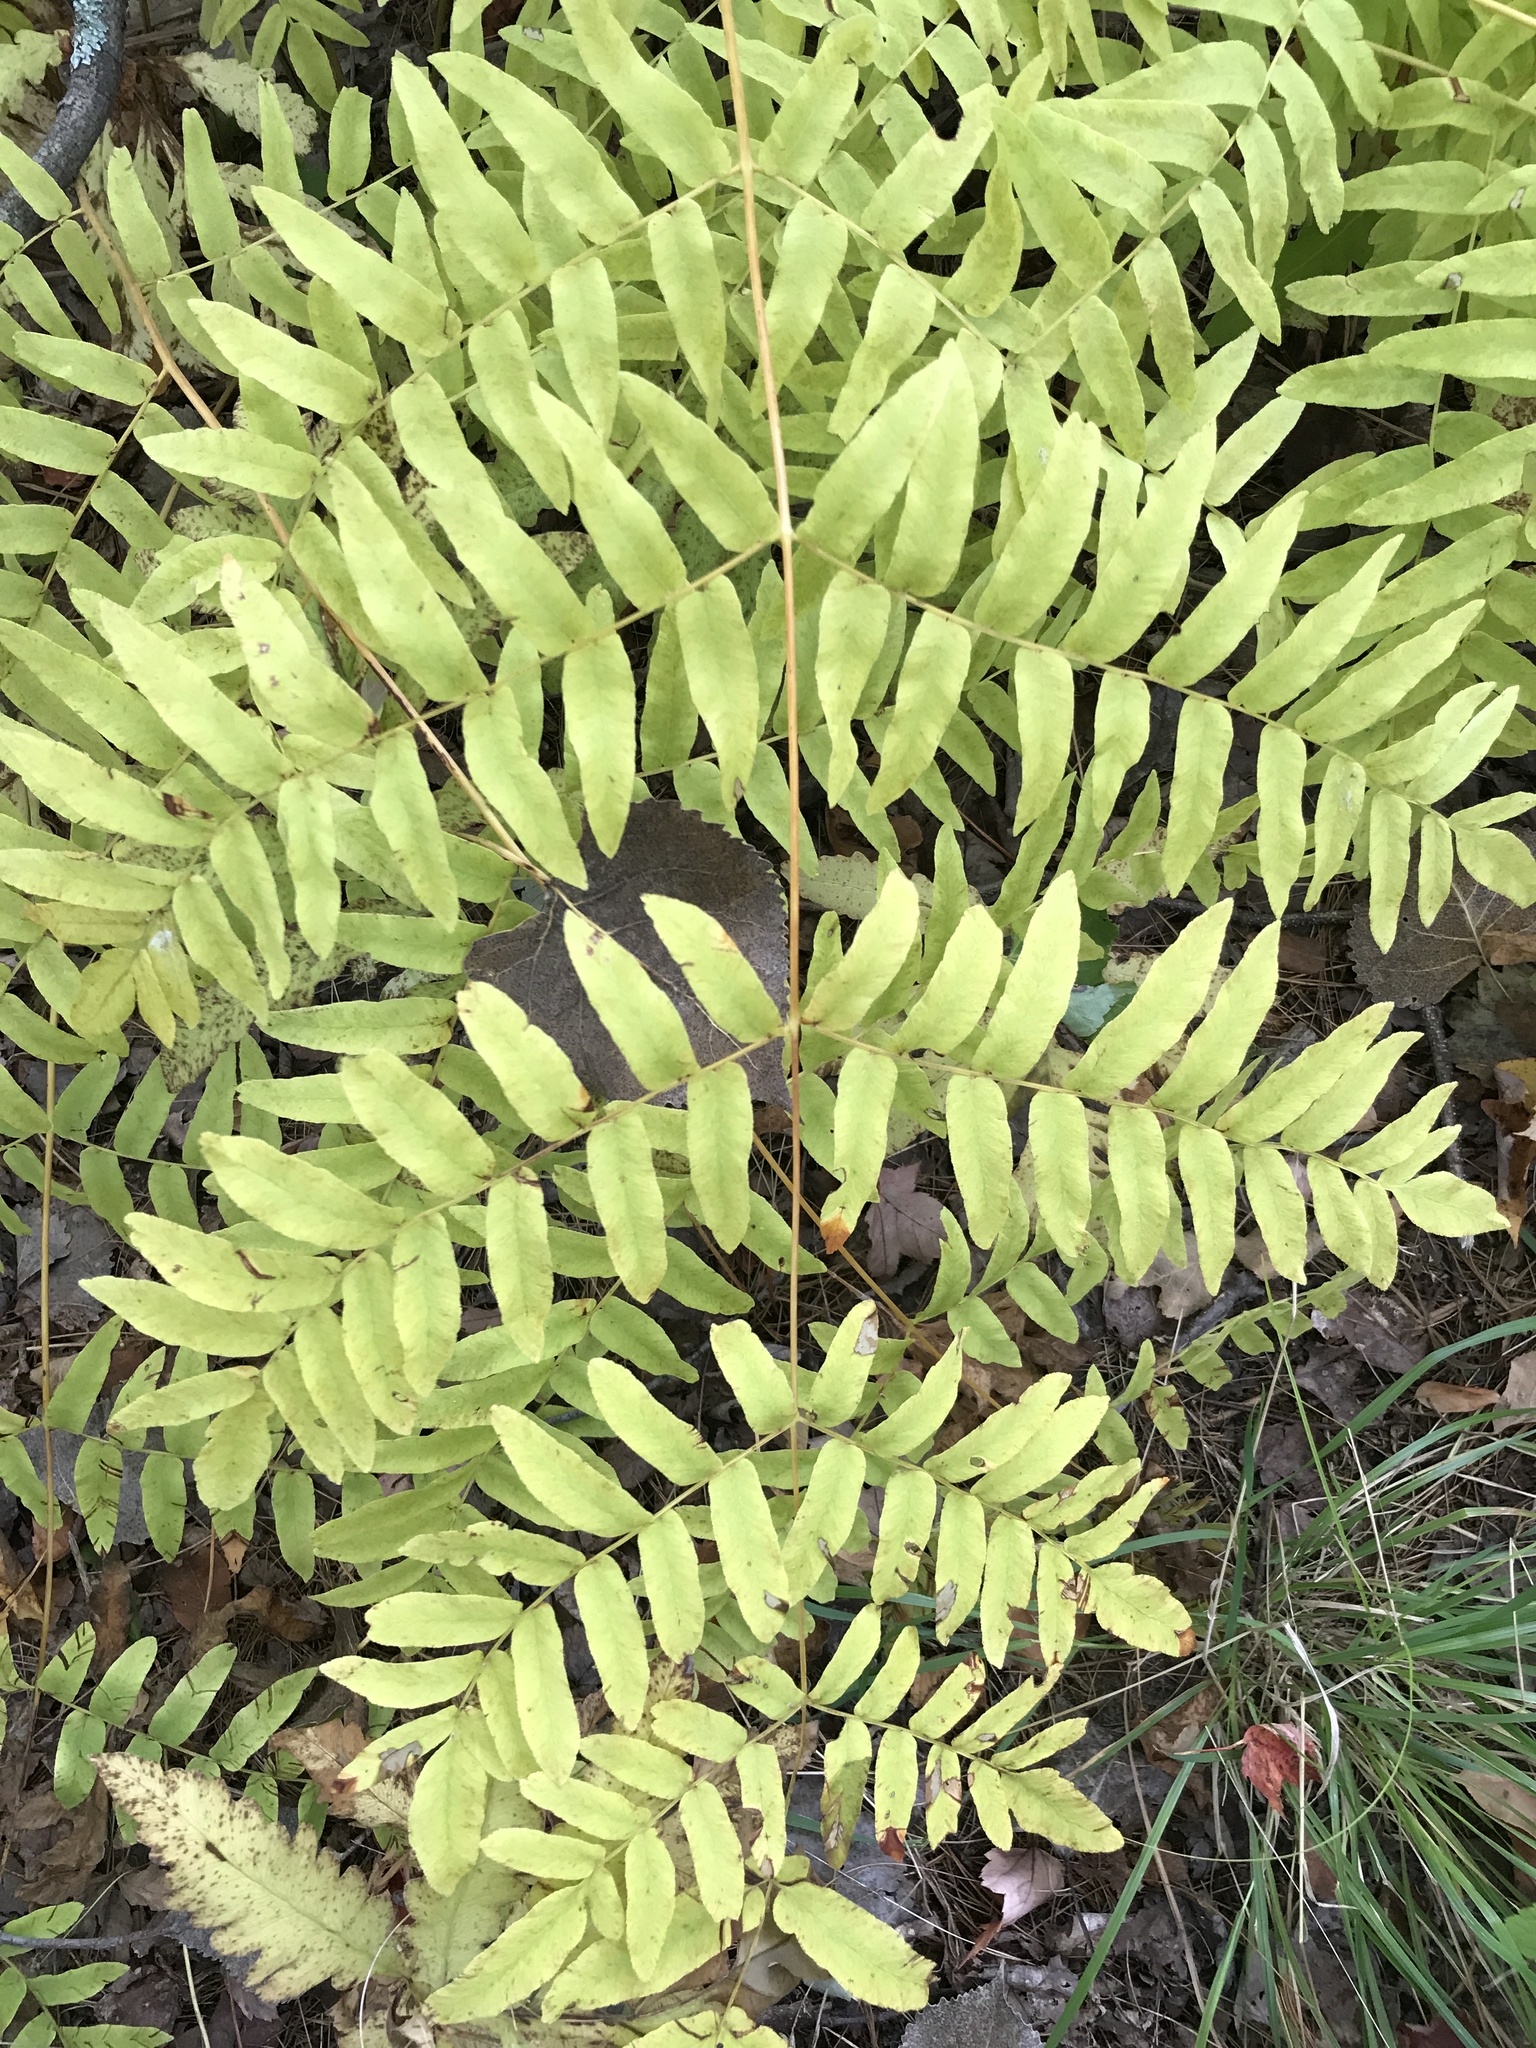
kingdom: Plantae
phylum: Tracheophyta
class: Polypodiopsida
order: Osmundales
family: Osmundaceae
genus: Osmunda
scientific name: Osmunda spectabilis
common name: American royal fern
